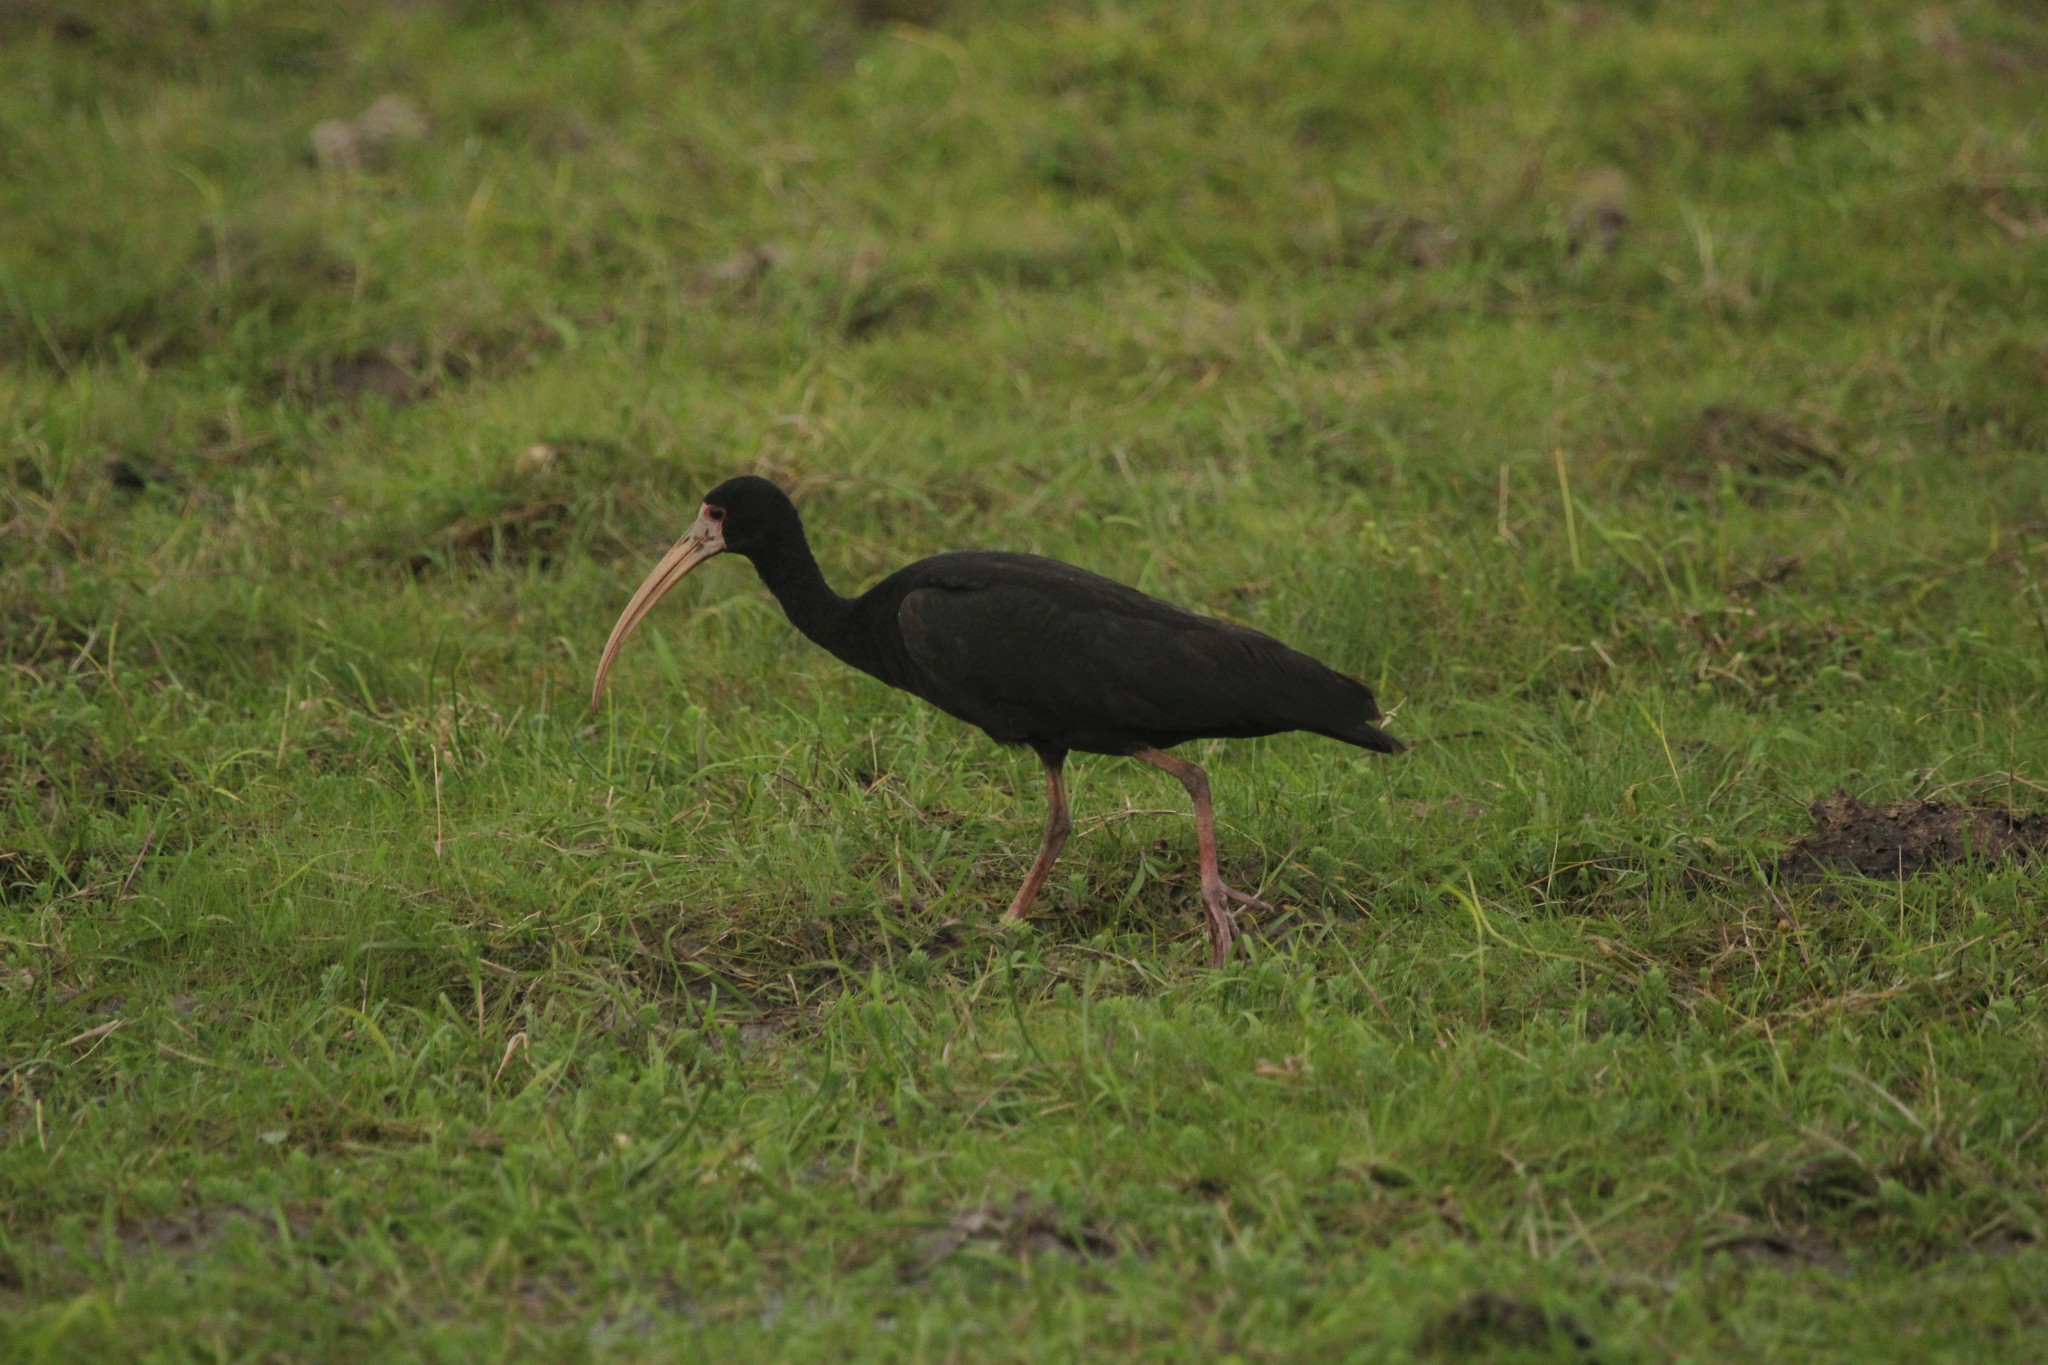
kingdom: Animalia
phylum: Chordata
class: Aves
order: Pelecaniformes
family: Threskiornithidae
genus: Phimosus
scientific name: Phimosus infuscatus
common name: Bare-faced ibis
